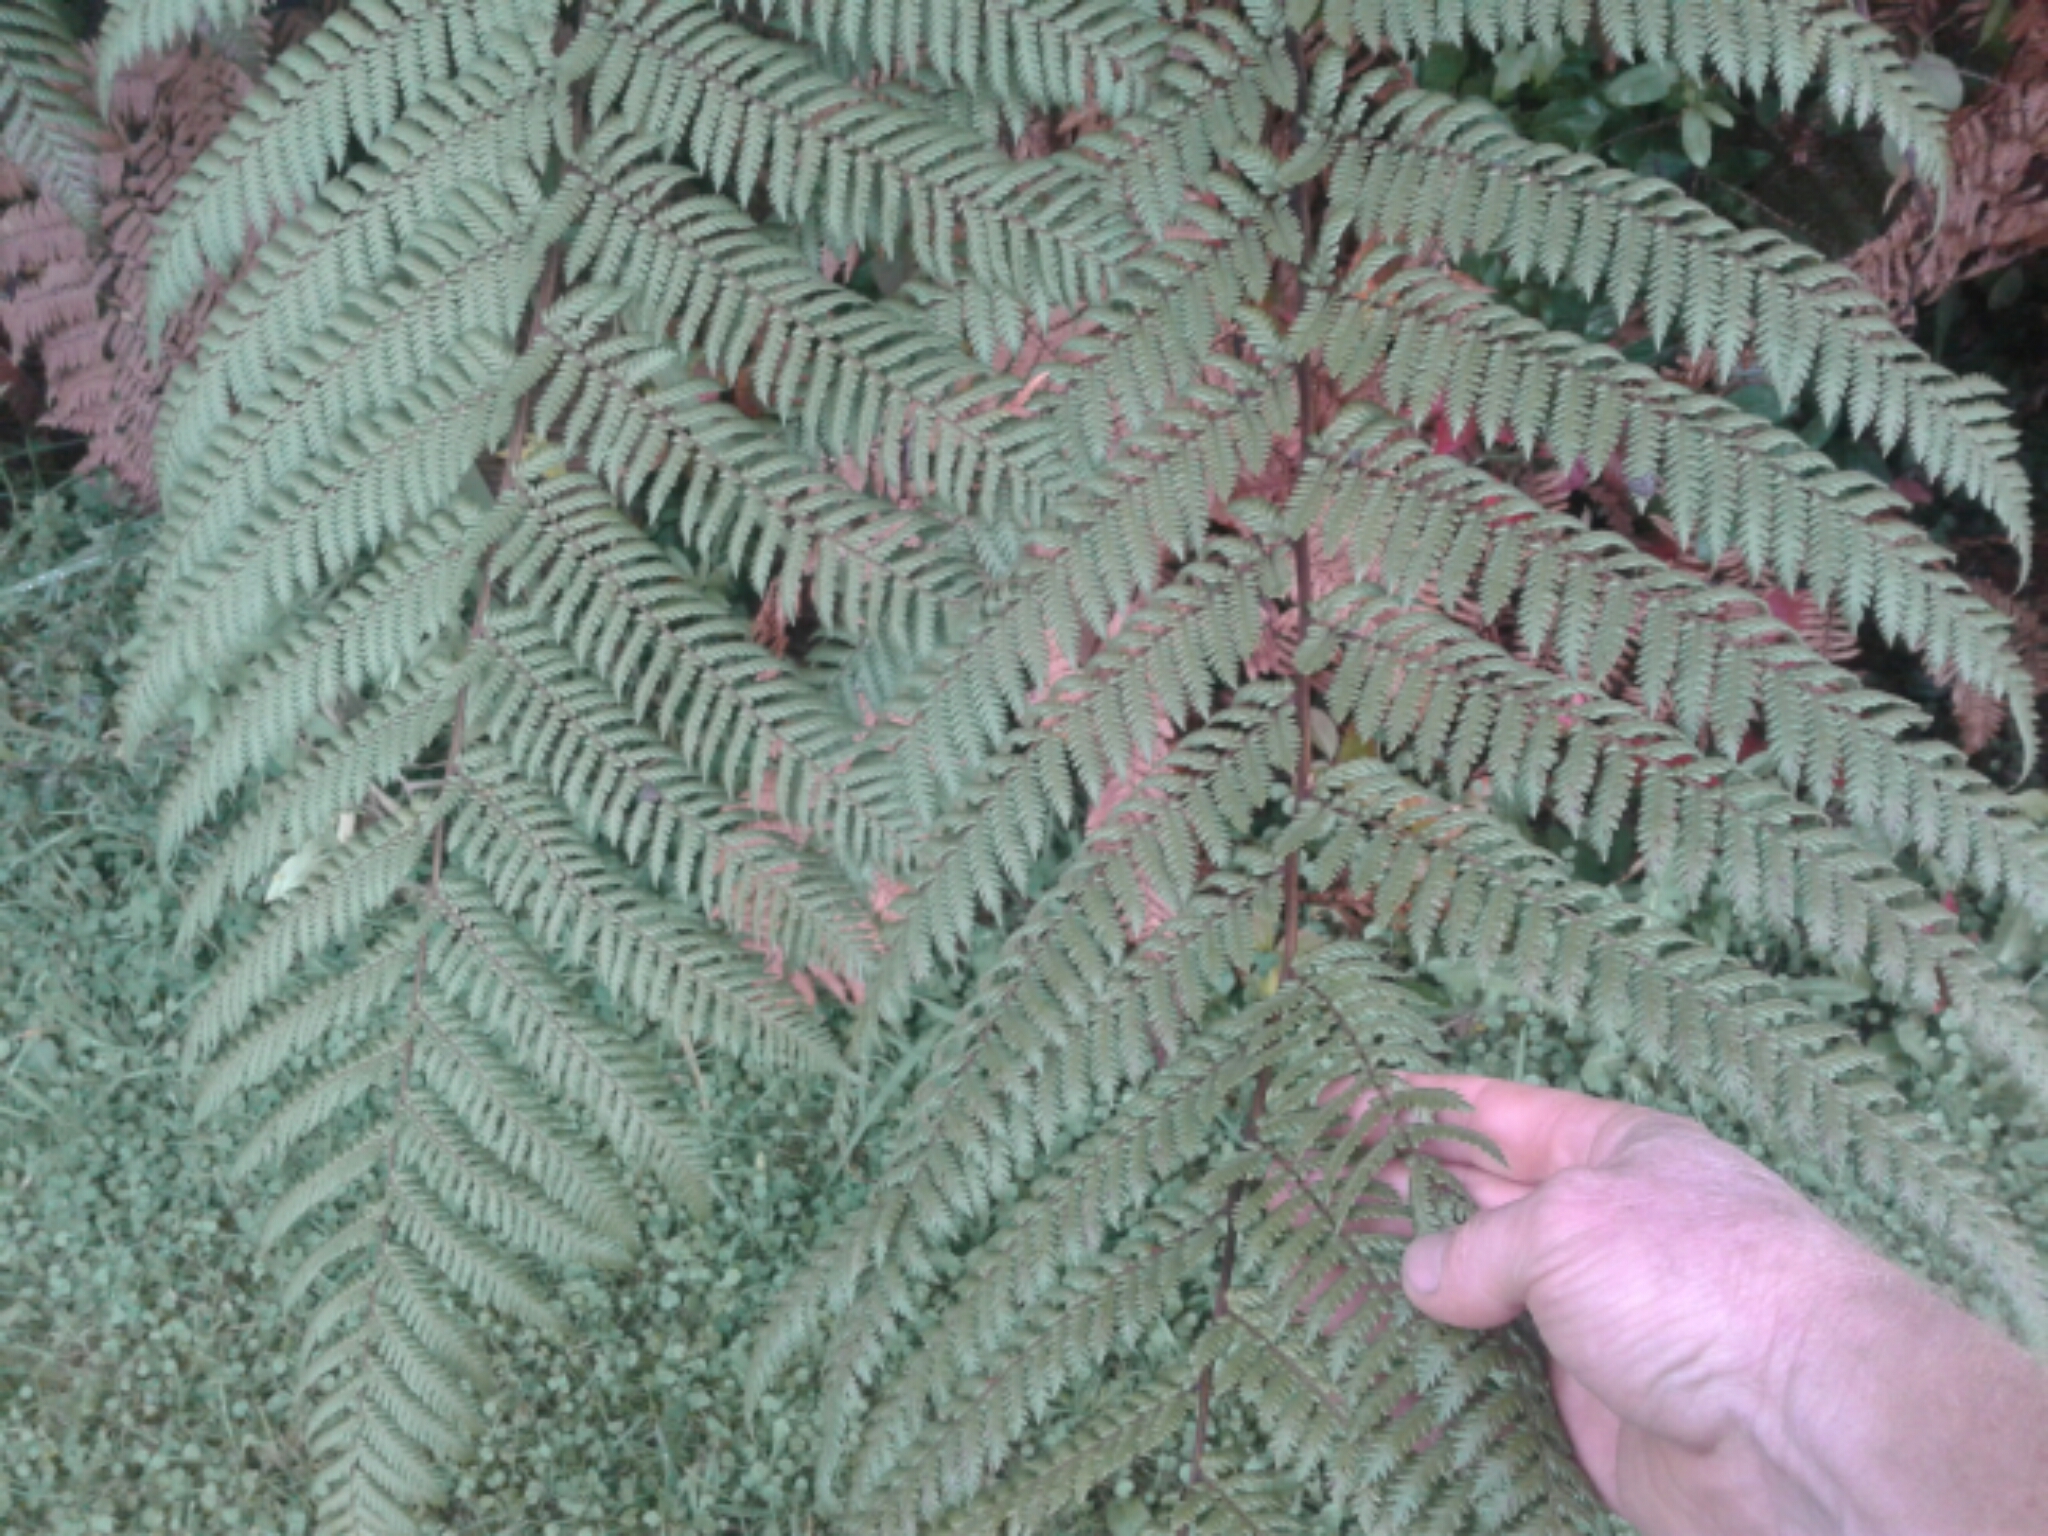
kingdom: Plantae
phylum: Tracheophyta
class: Polypodiopsida
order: Cyatheales
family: Dicksoniaceae
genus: Dicksonia
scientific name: Dicksonia squarrosa
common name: Hard treefern
